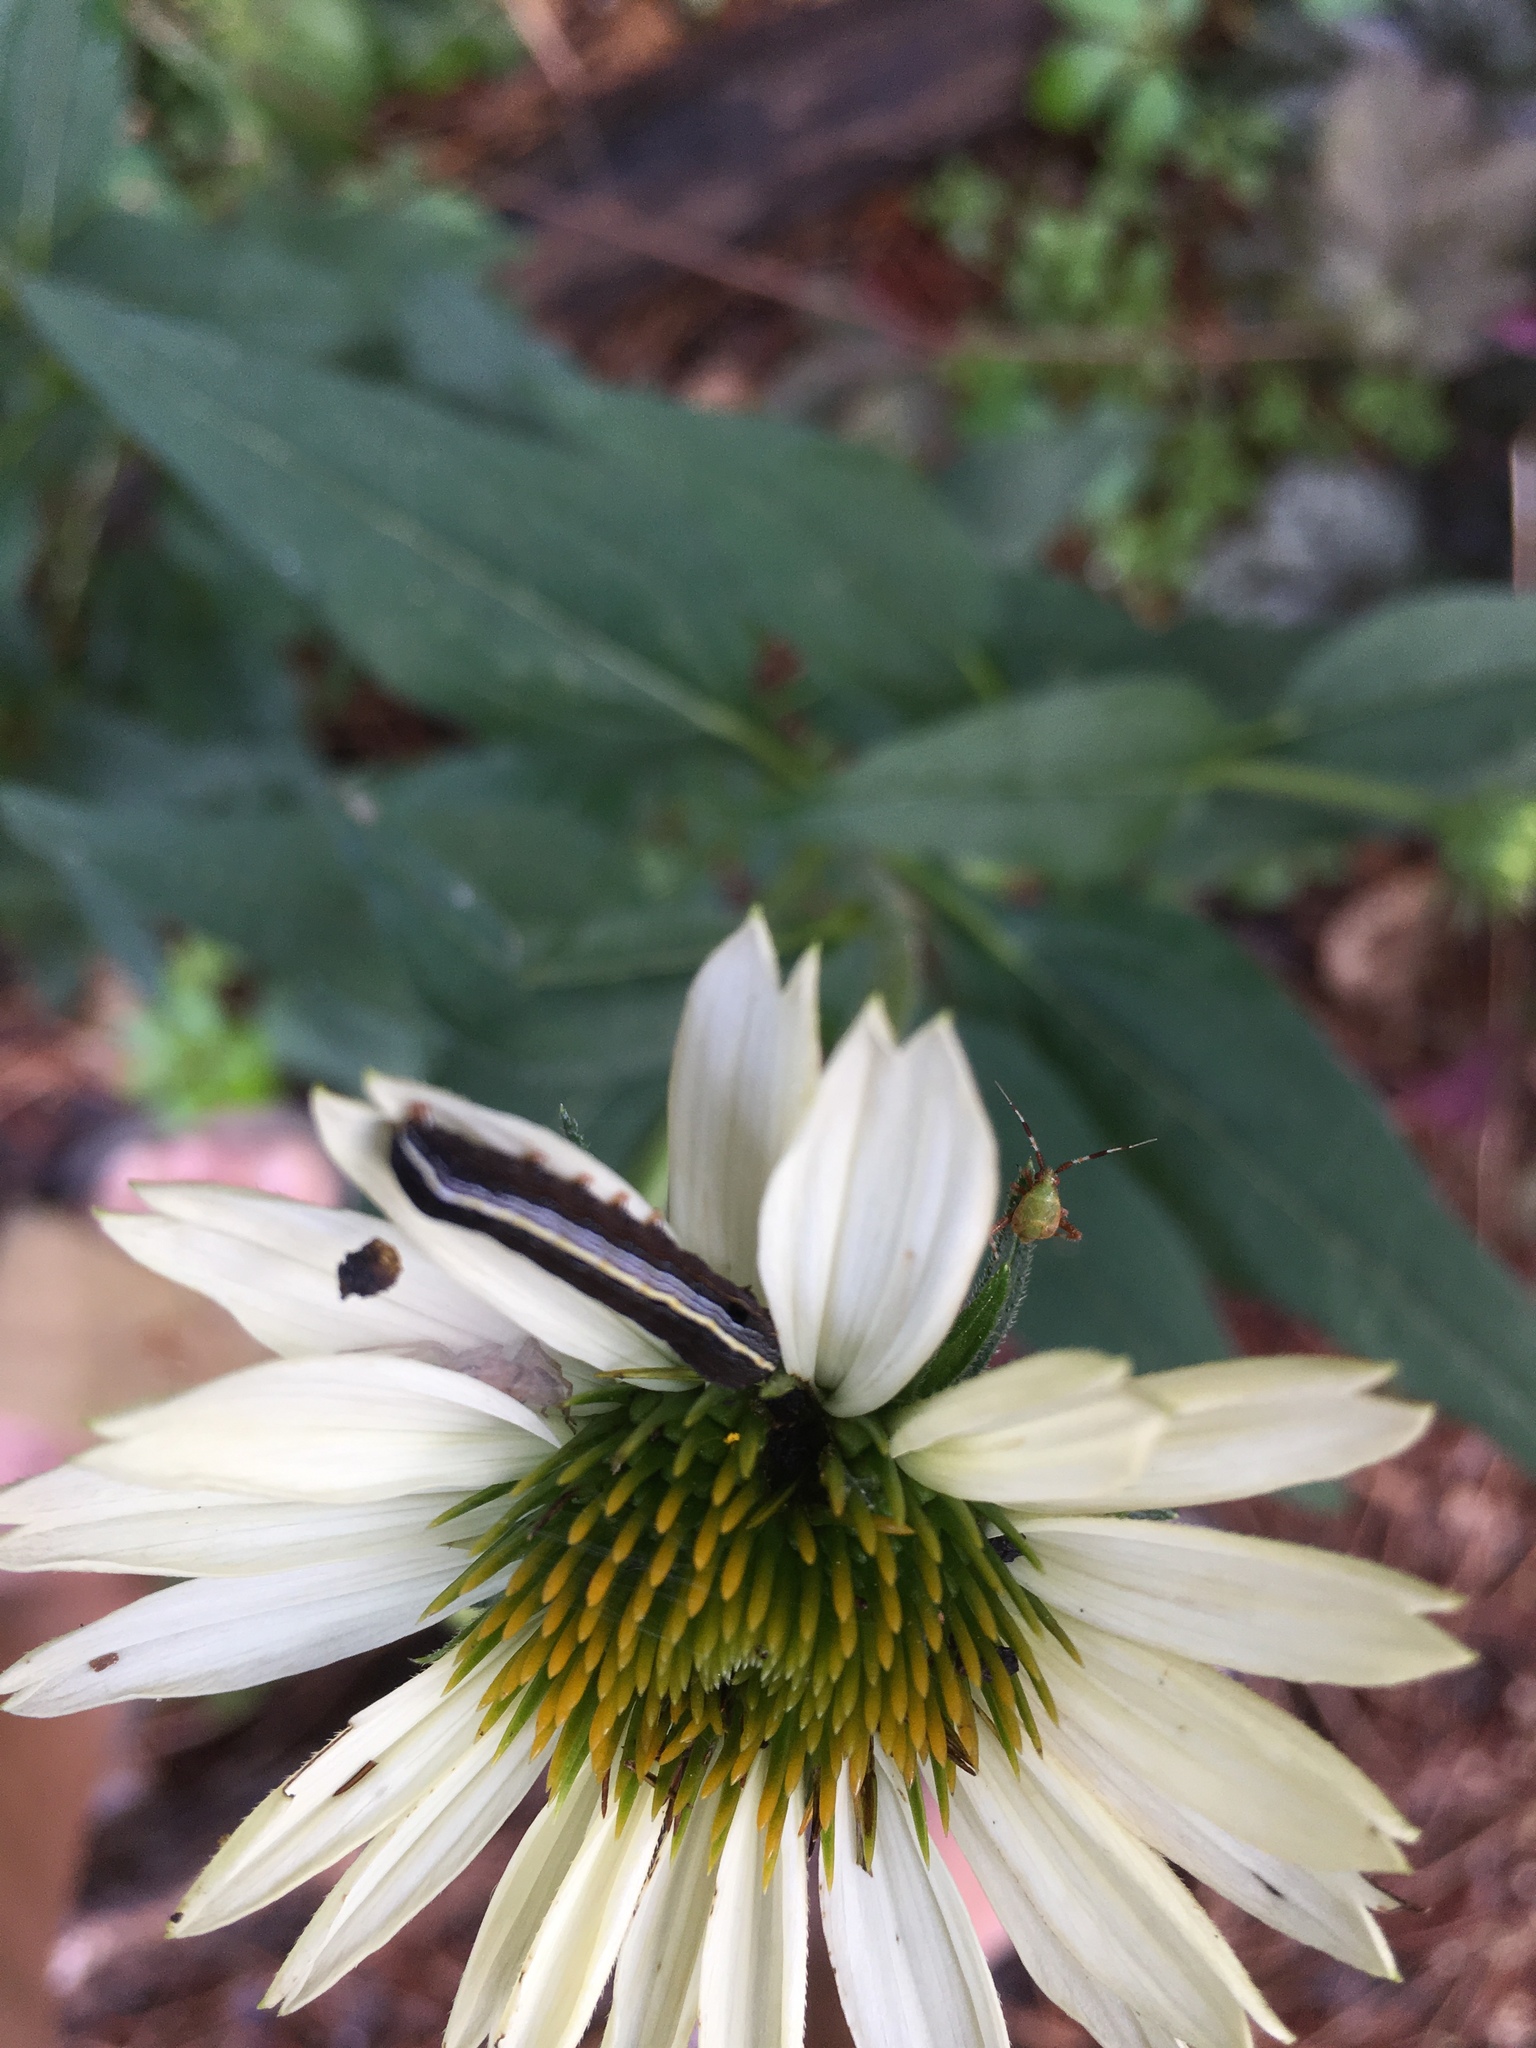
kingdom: Animalia
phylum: Arthropoda
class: Insecta
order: Lepidoptera
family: Noctuidae
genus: Spodoptera
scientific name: Spodoptera ornithogalli
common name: Yellow-striped armyworm
